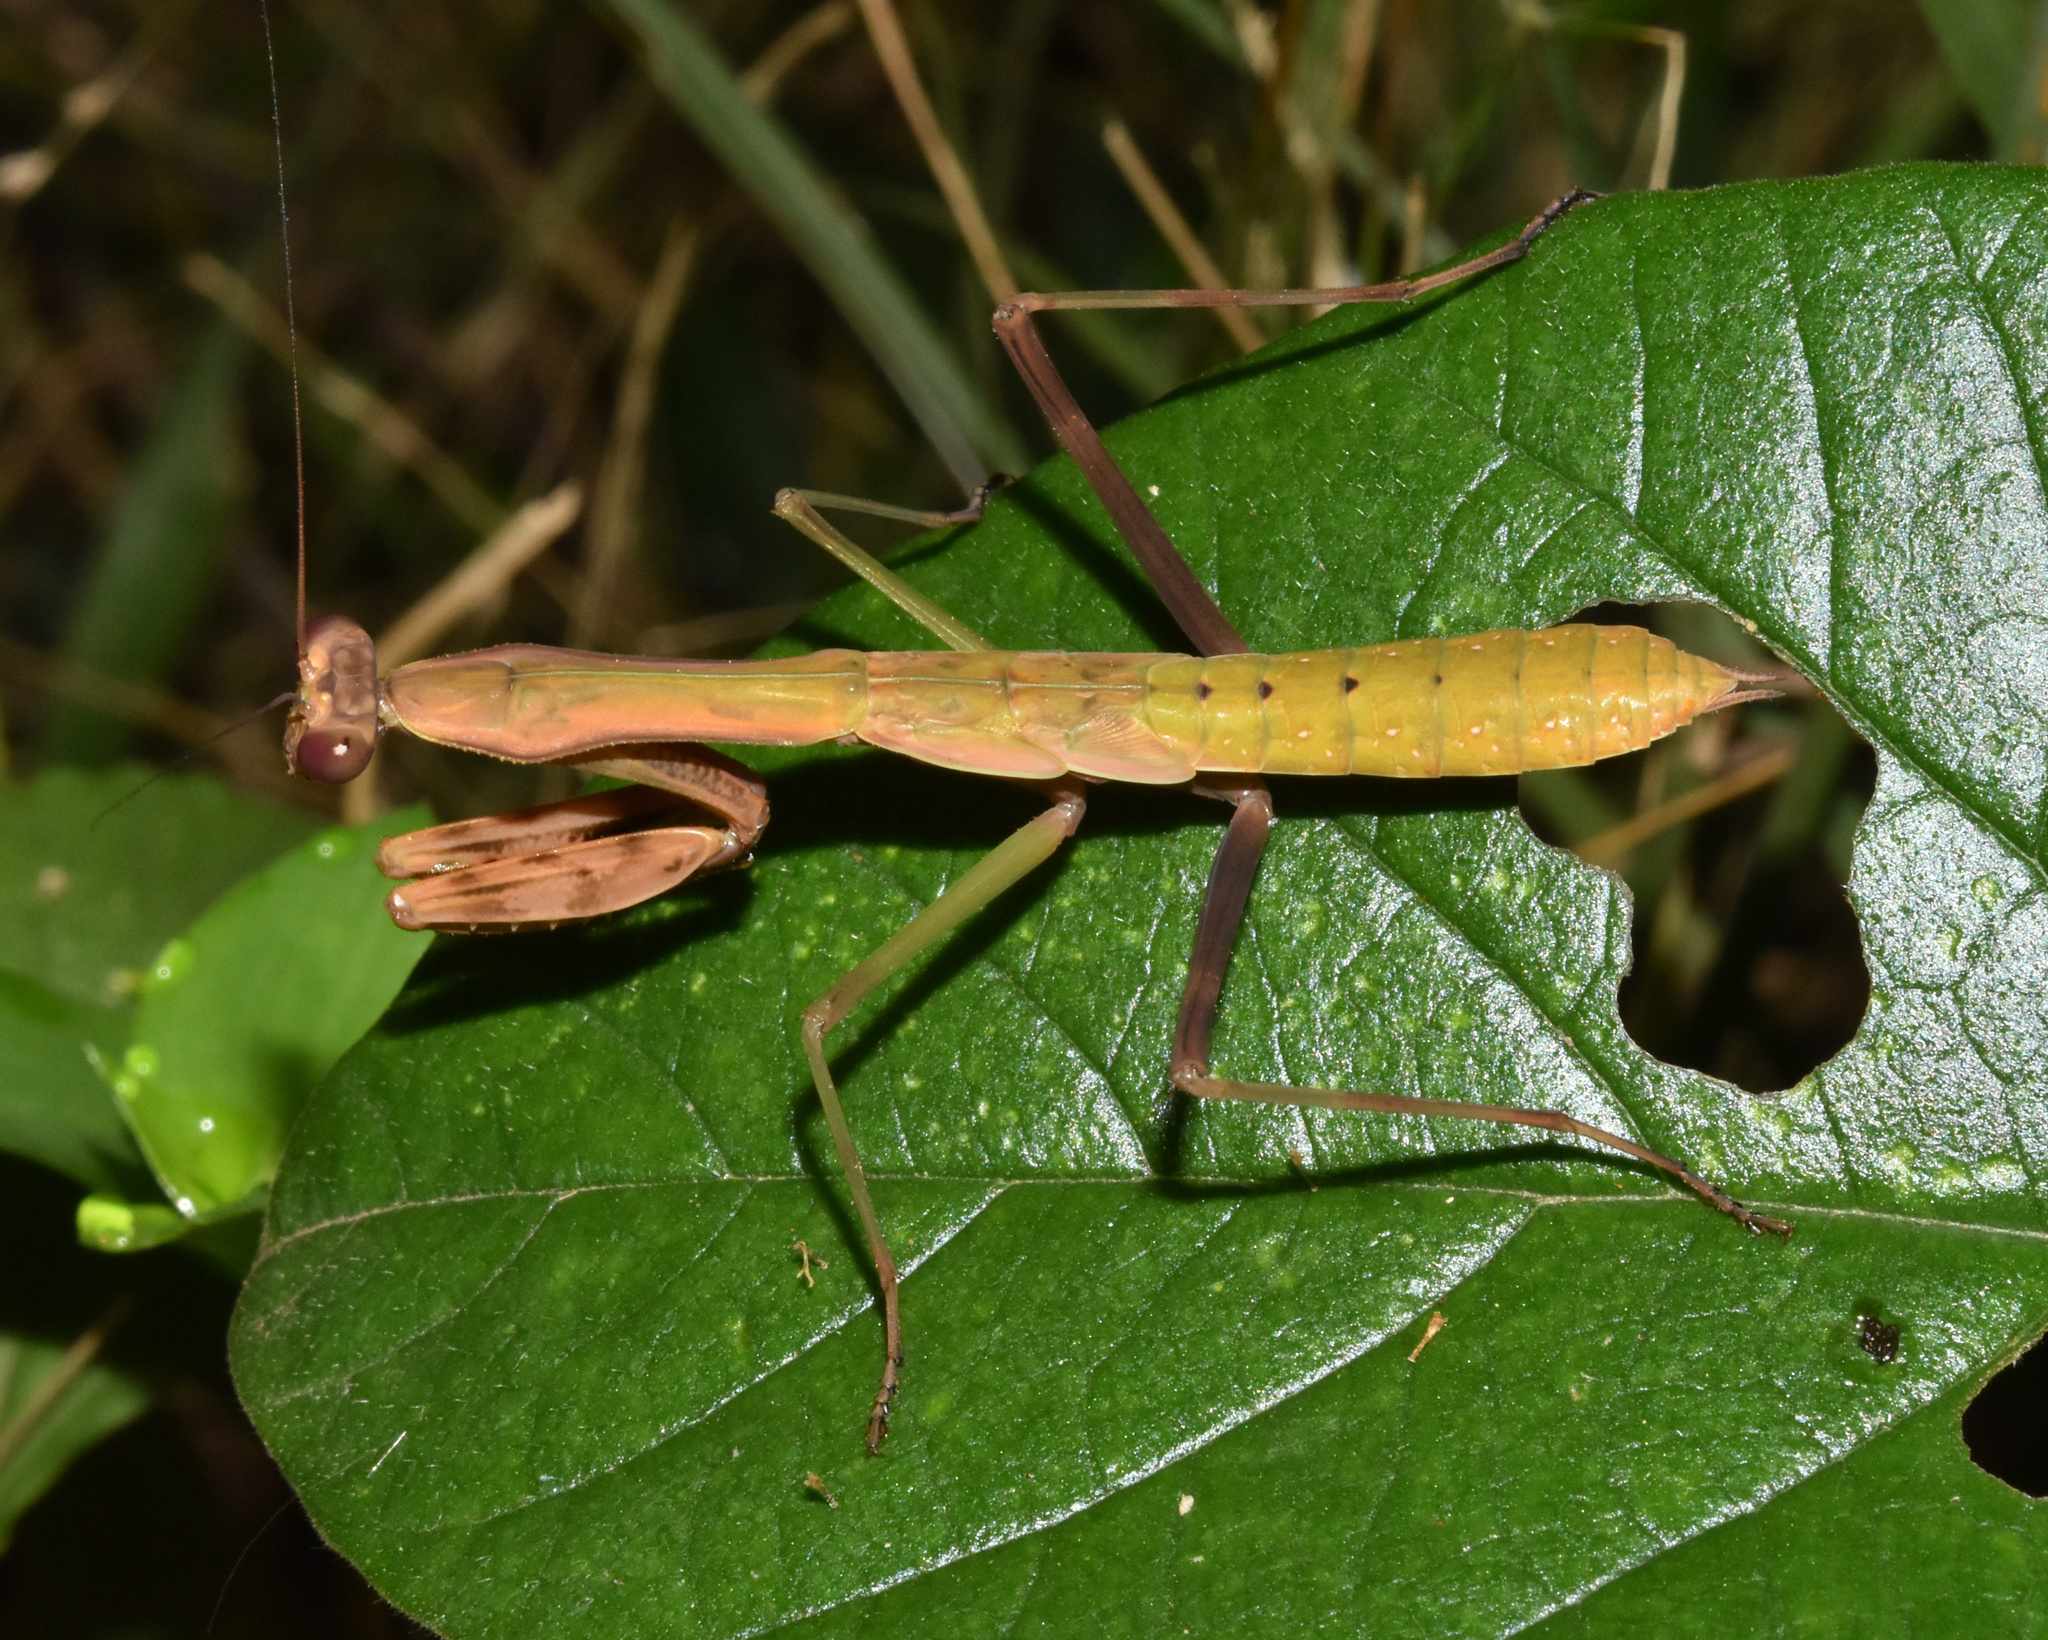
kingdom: Animalia
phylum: Arthropoda
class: Insecta
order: Mantodea
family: Mantidae
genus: Polyspilota
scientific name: Polyspilota aeruginosa
